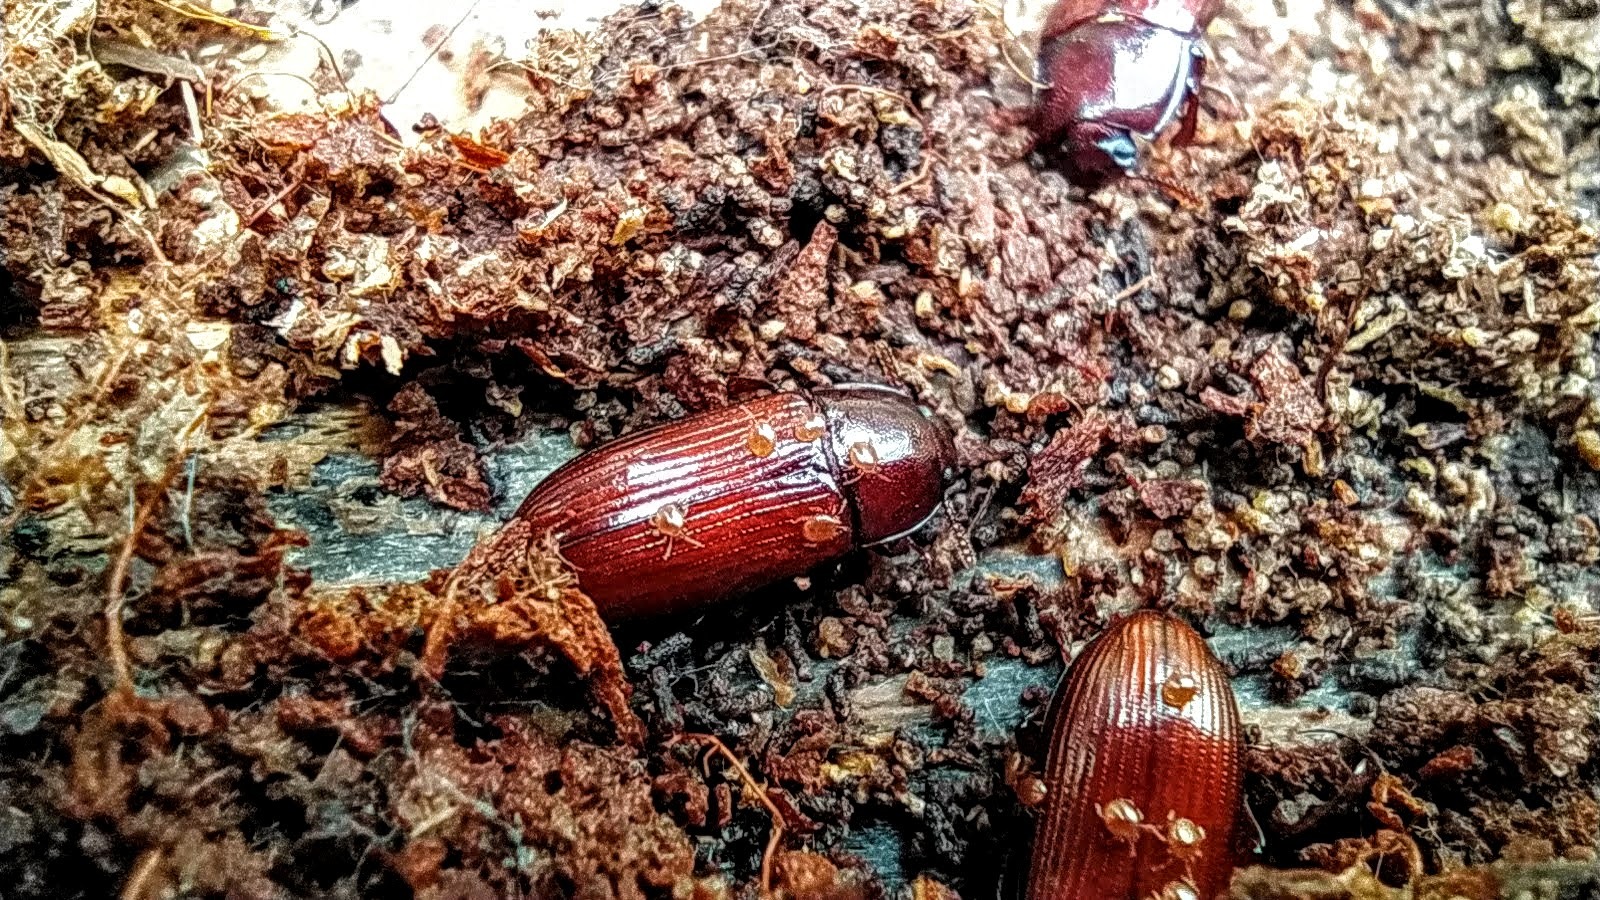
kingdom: Animalia
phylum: Arthropoda
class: Insecta
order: Coleoptera
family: Tenebrionidae
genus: Uloma
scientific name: Uloma rufa
